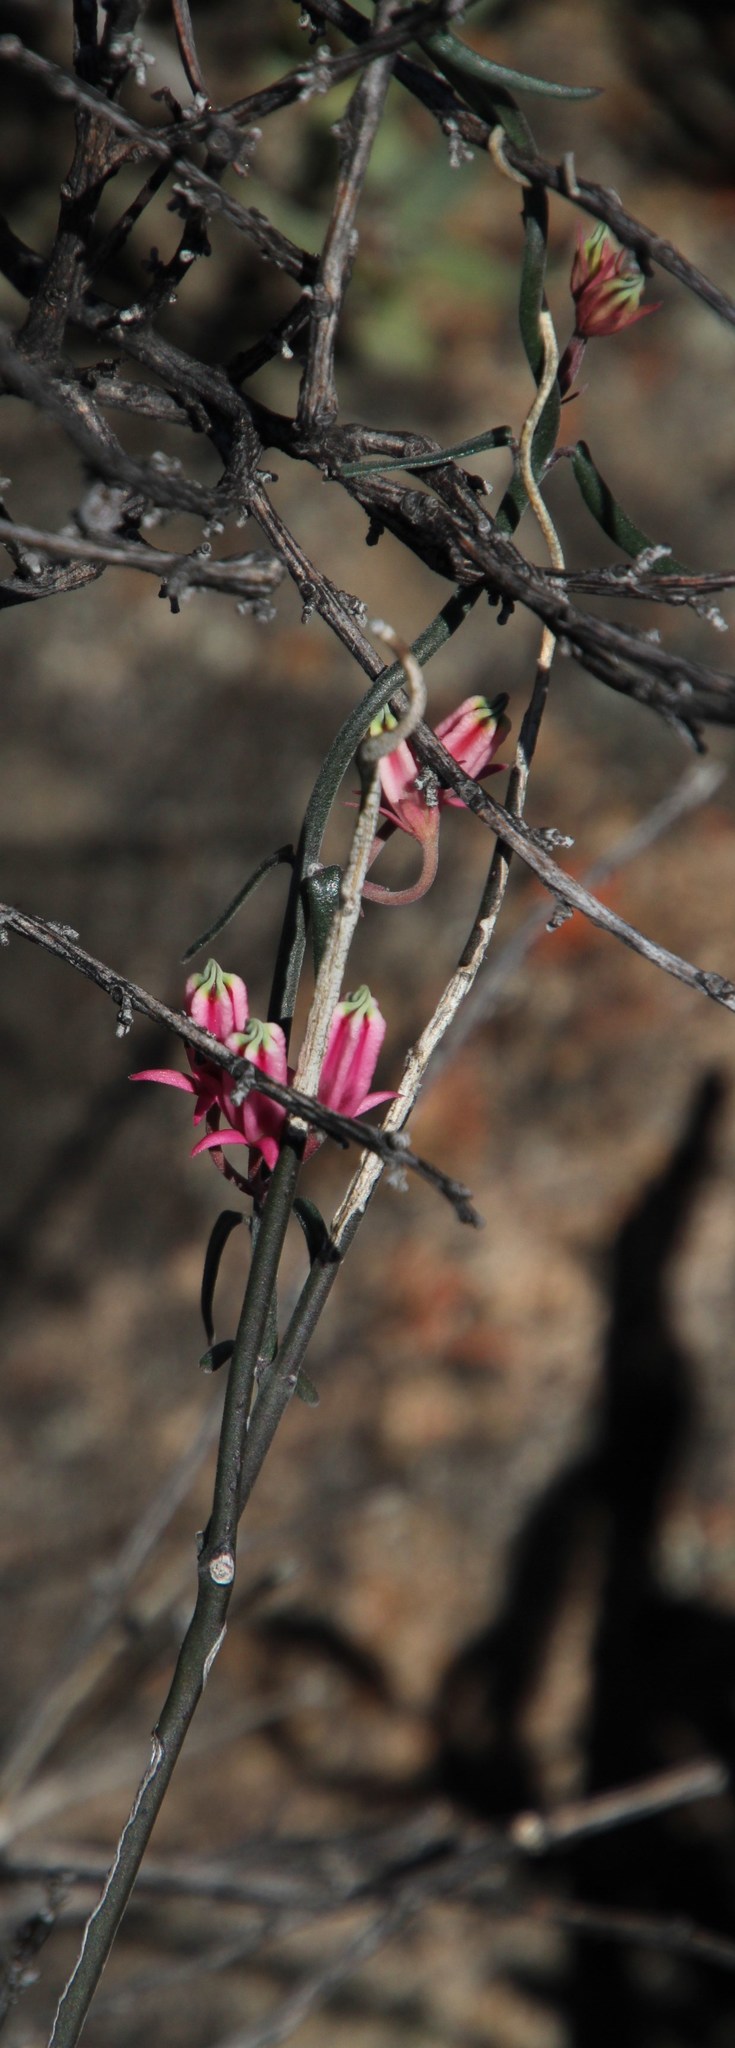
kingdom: Plantae
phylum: Tracheophyta
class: Magnoliopsida
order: Gentianales
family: Apocynaceae
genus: Microloma
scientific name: Microloma sagittatum
